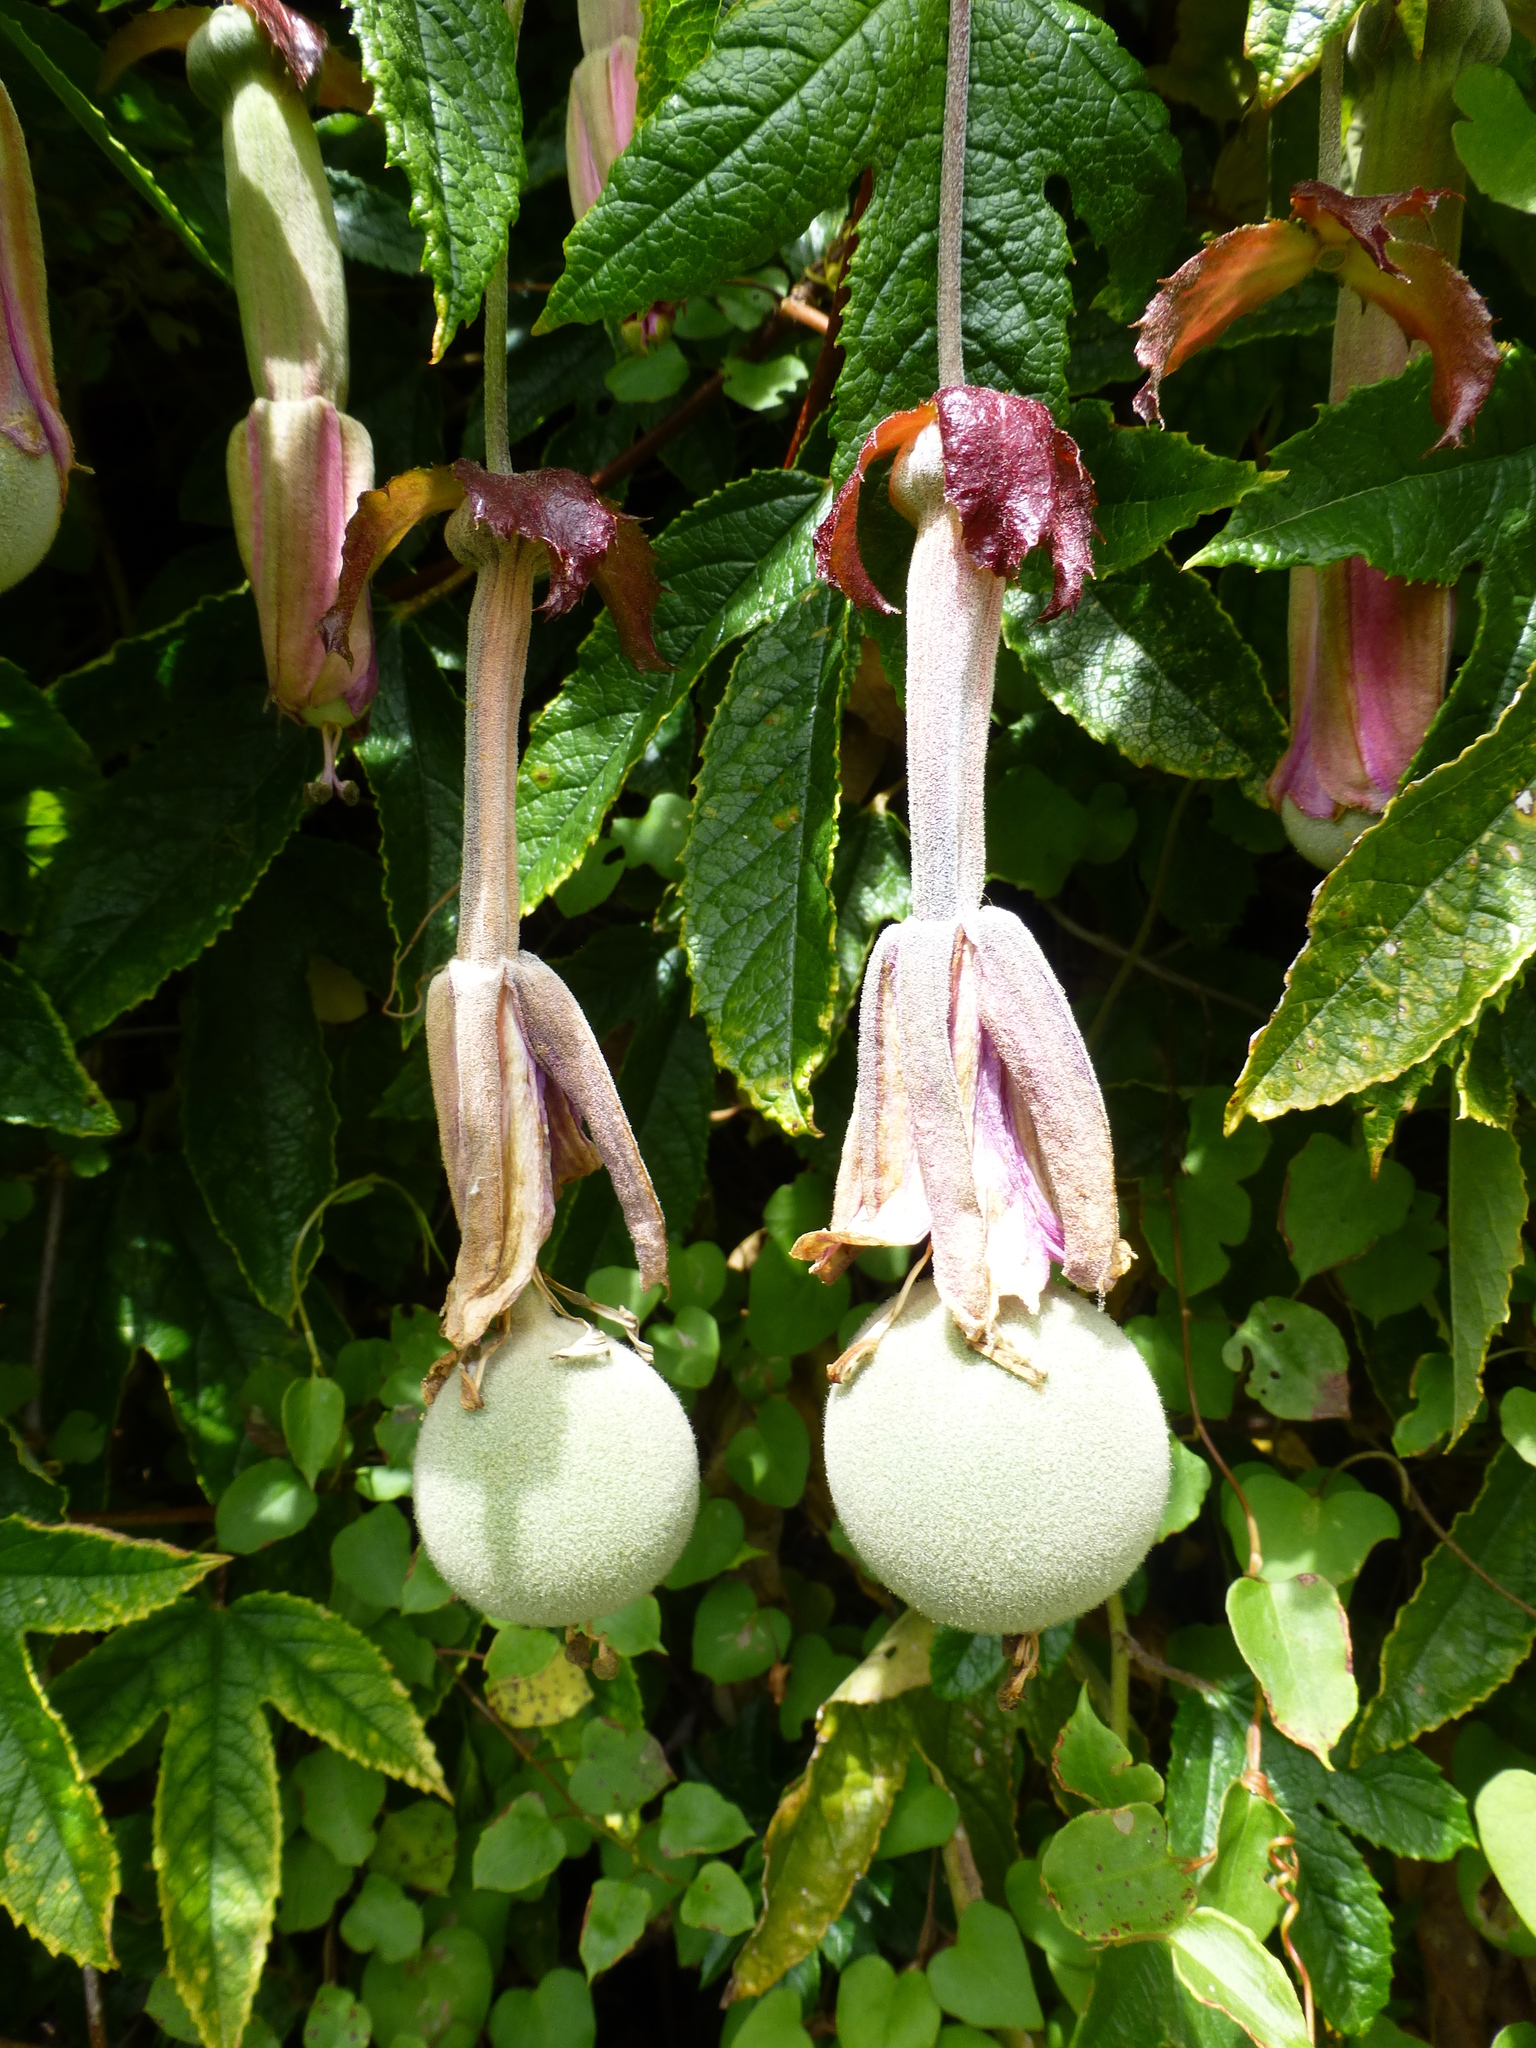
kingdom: Plantae
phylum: Tracheophyta
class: Magnoliopsida
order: Malpighiales
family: Passifloraceae
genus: Passiflora
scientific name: Passiflora pinnatistipula
